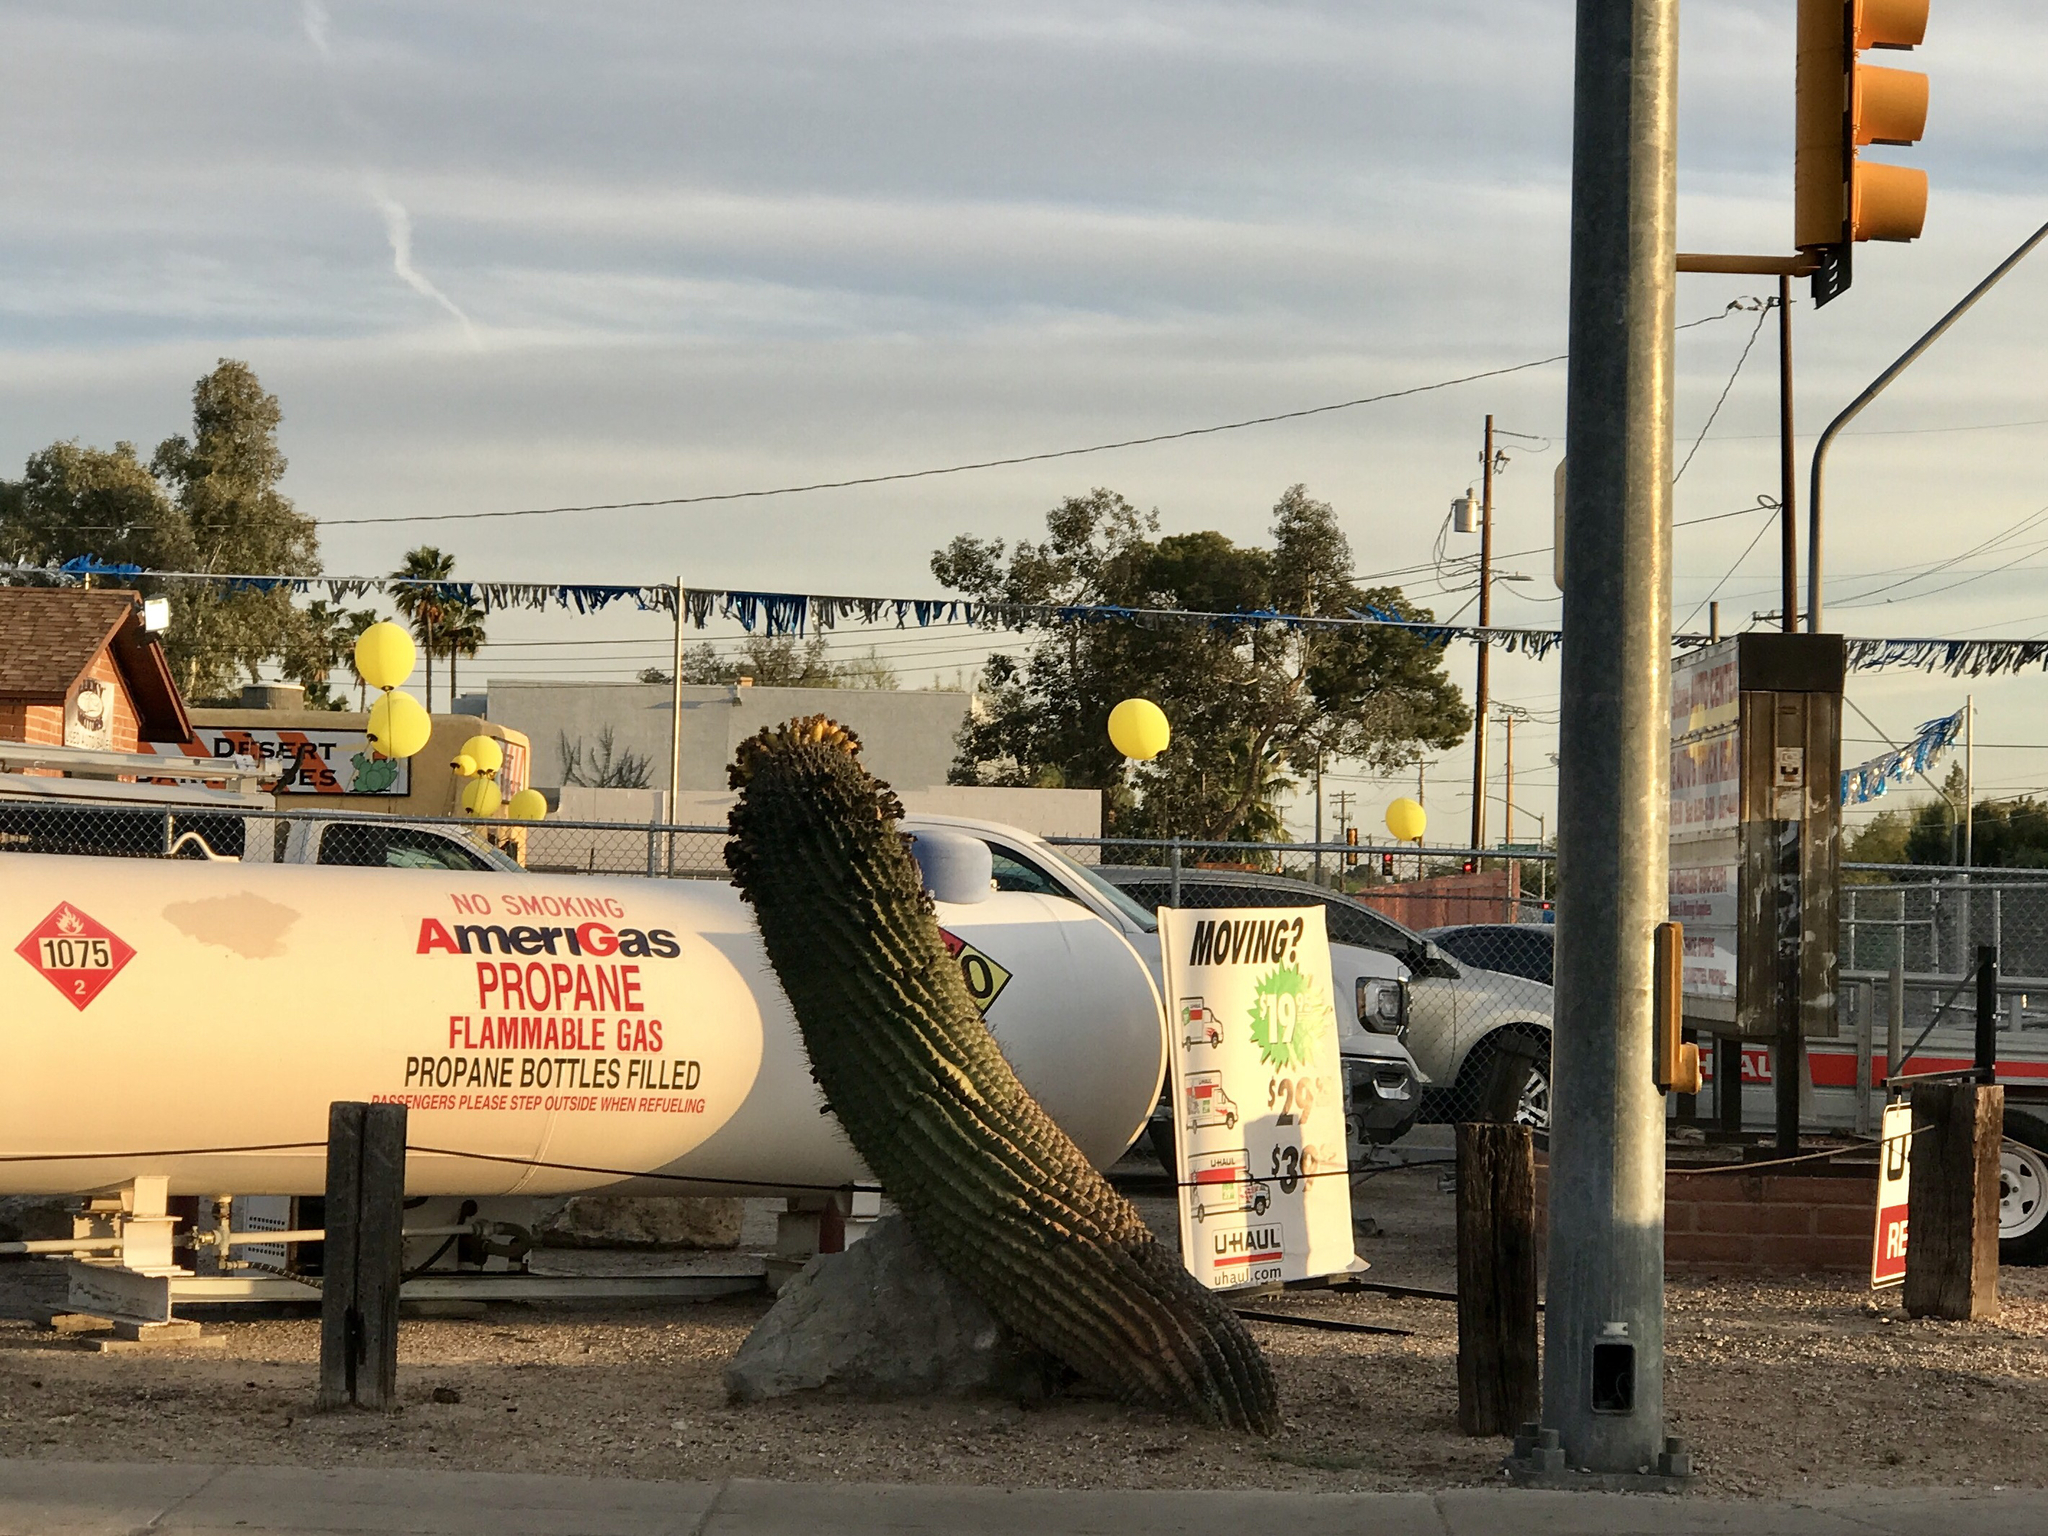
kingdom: Plantae
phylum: Tracheophyta
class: Magnoliopsida
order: Caryophyllales
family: Cactaceae
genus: Ferocactus
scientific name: Ferocactus wislizeni
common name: Candy barrel cactus
